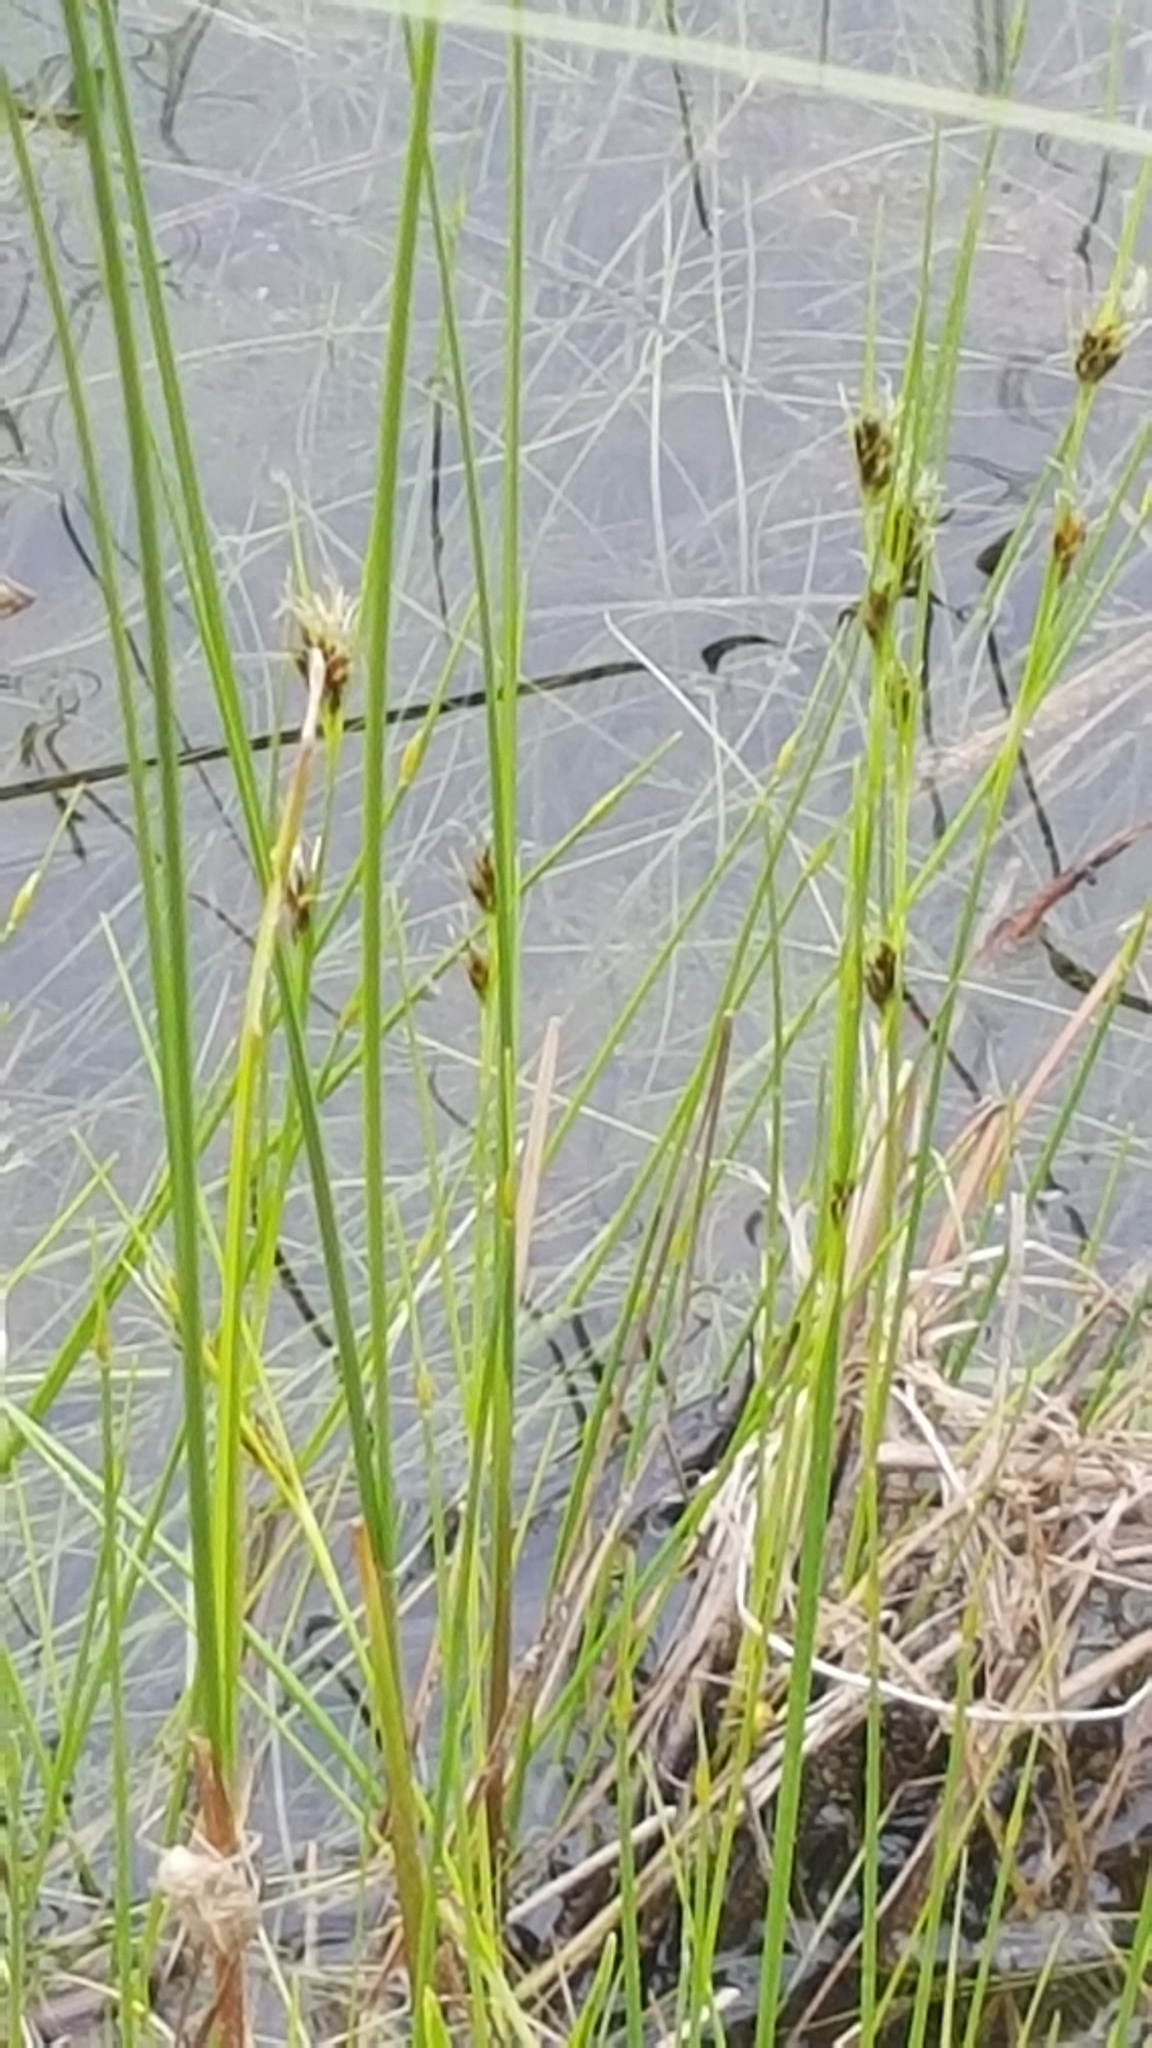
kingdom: Plantae
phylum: Tracheophyta
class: Liliopsida
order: Poales
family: Cyperaceae
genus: Rhynchospora
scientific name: Rhynchospora fusca
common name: Brown beak-sedge
